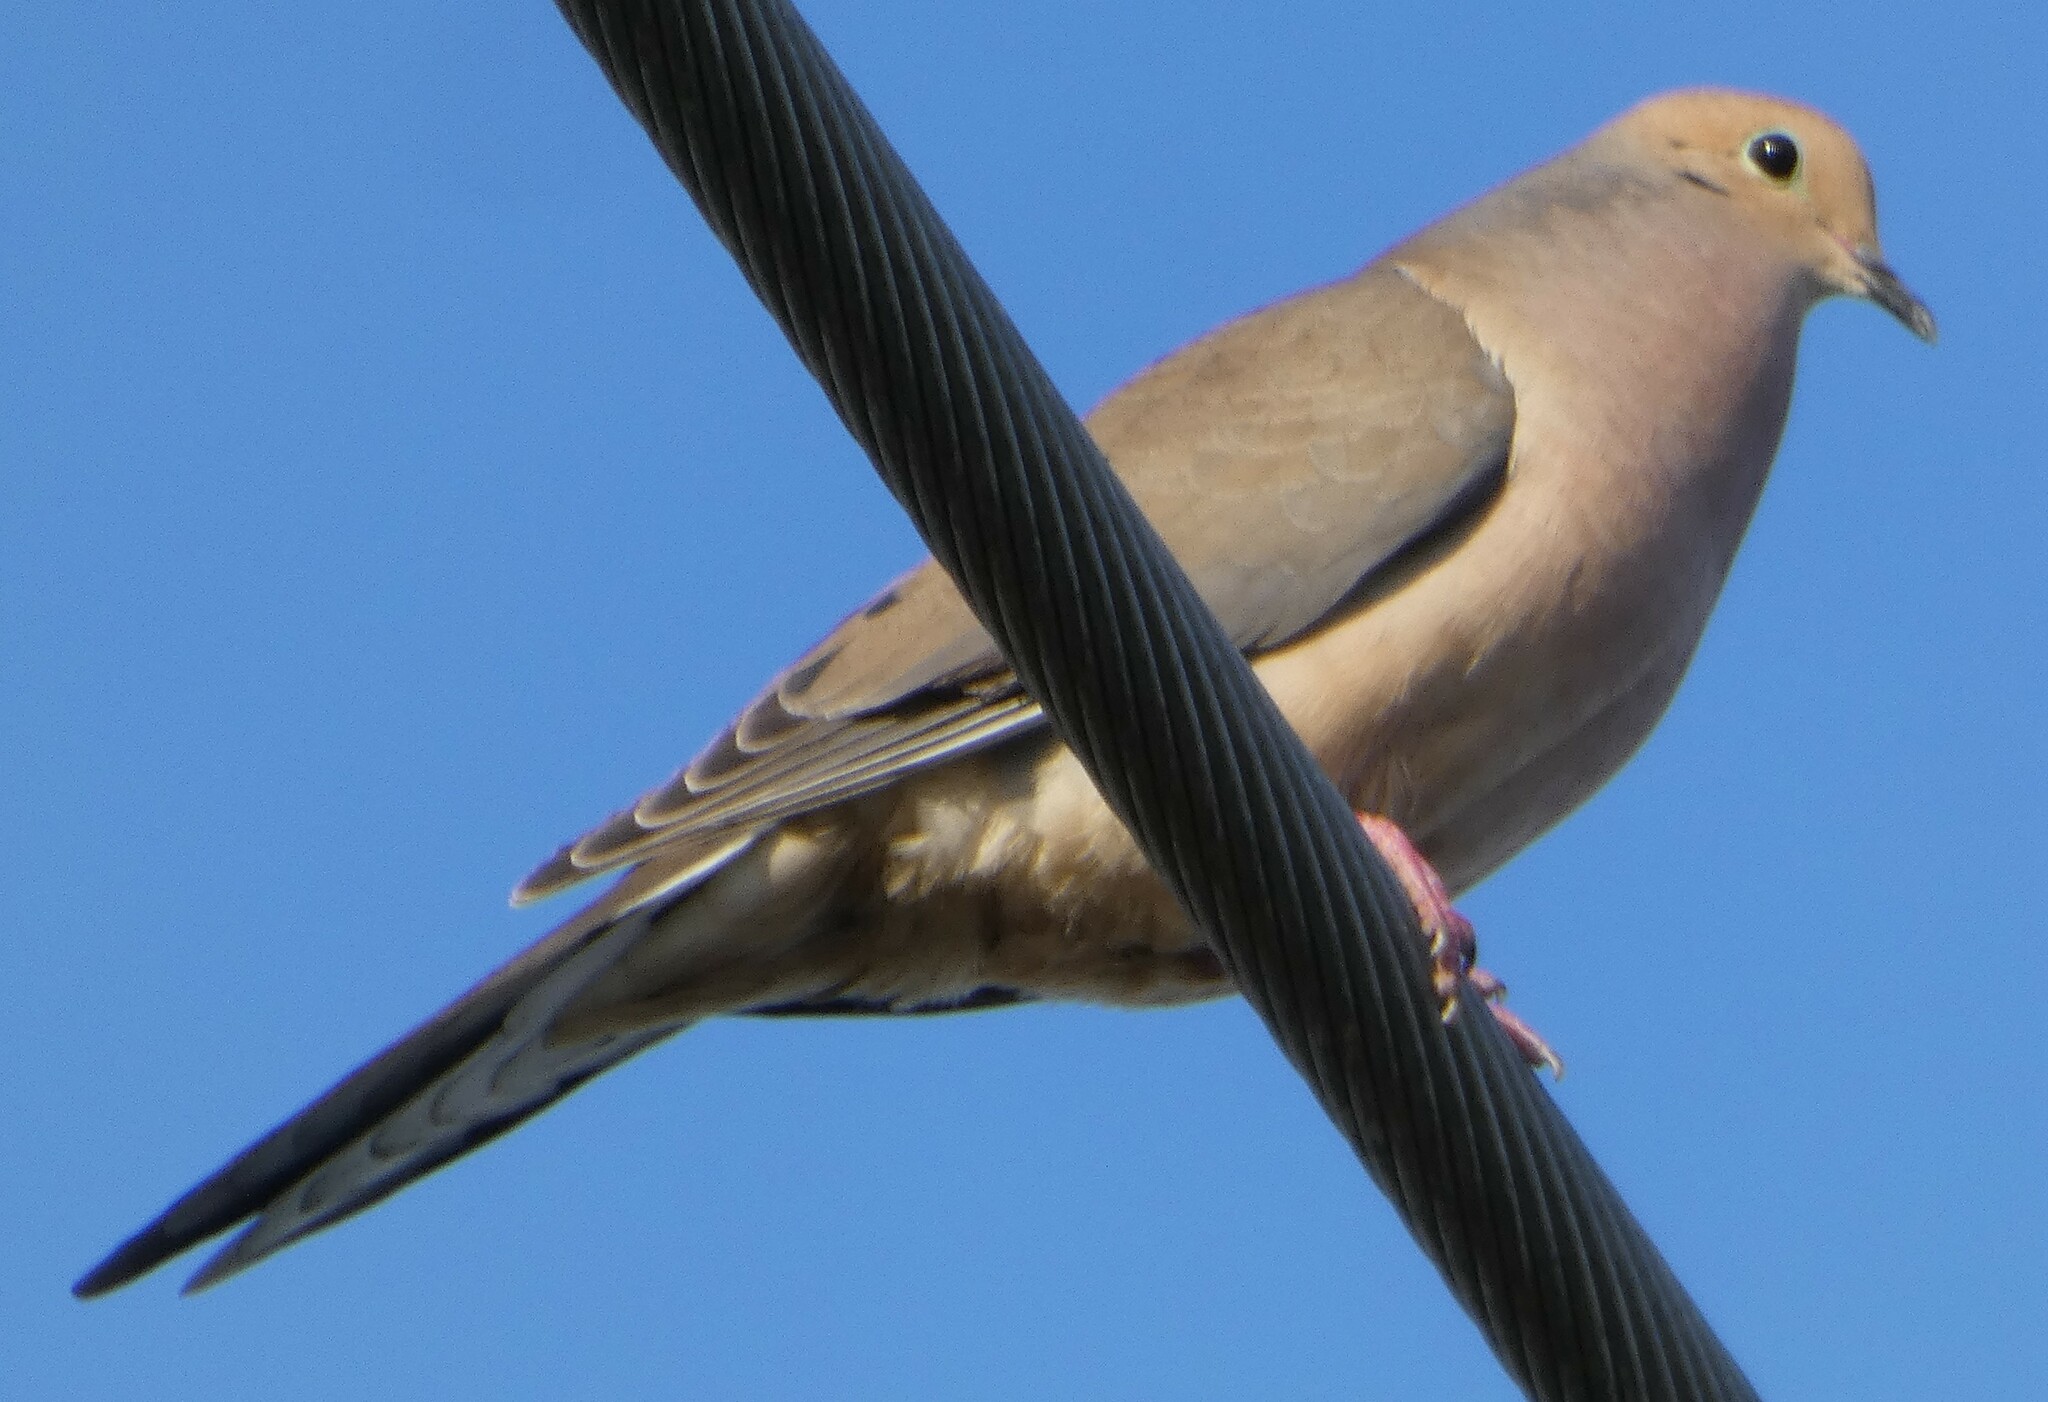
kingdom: Animalia
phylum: Chordata
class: Aves
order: Columbiformes
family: Columbidae
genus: Zenaida
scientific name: Zenaida macroura
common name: Mourning dove
